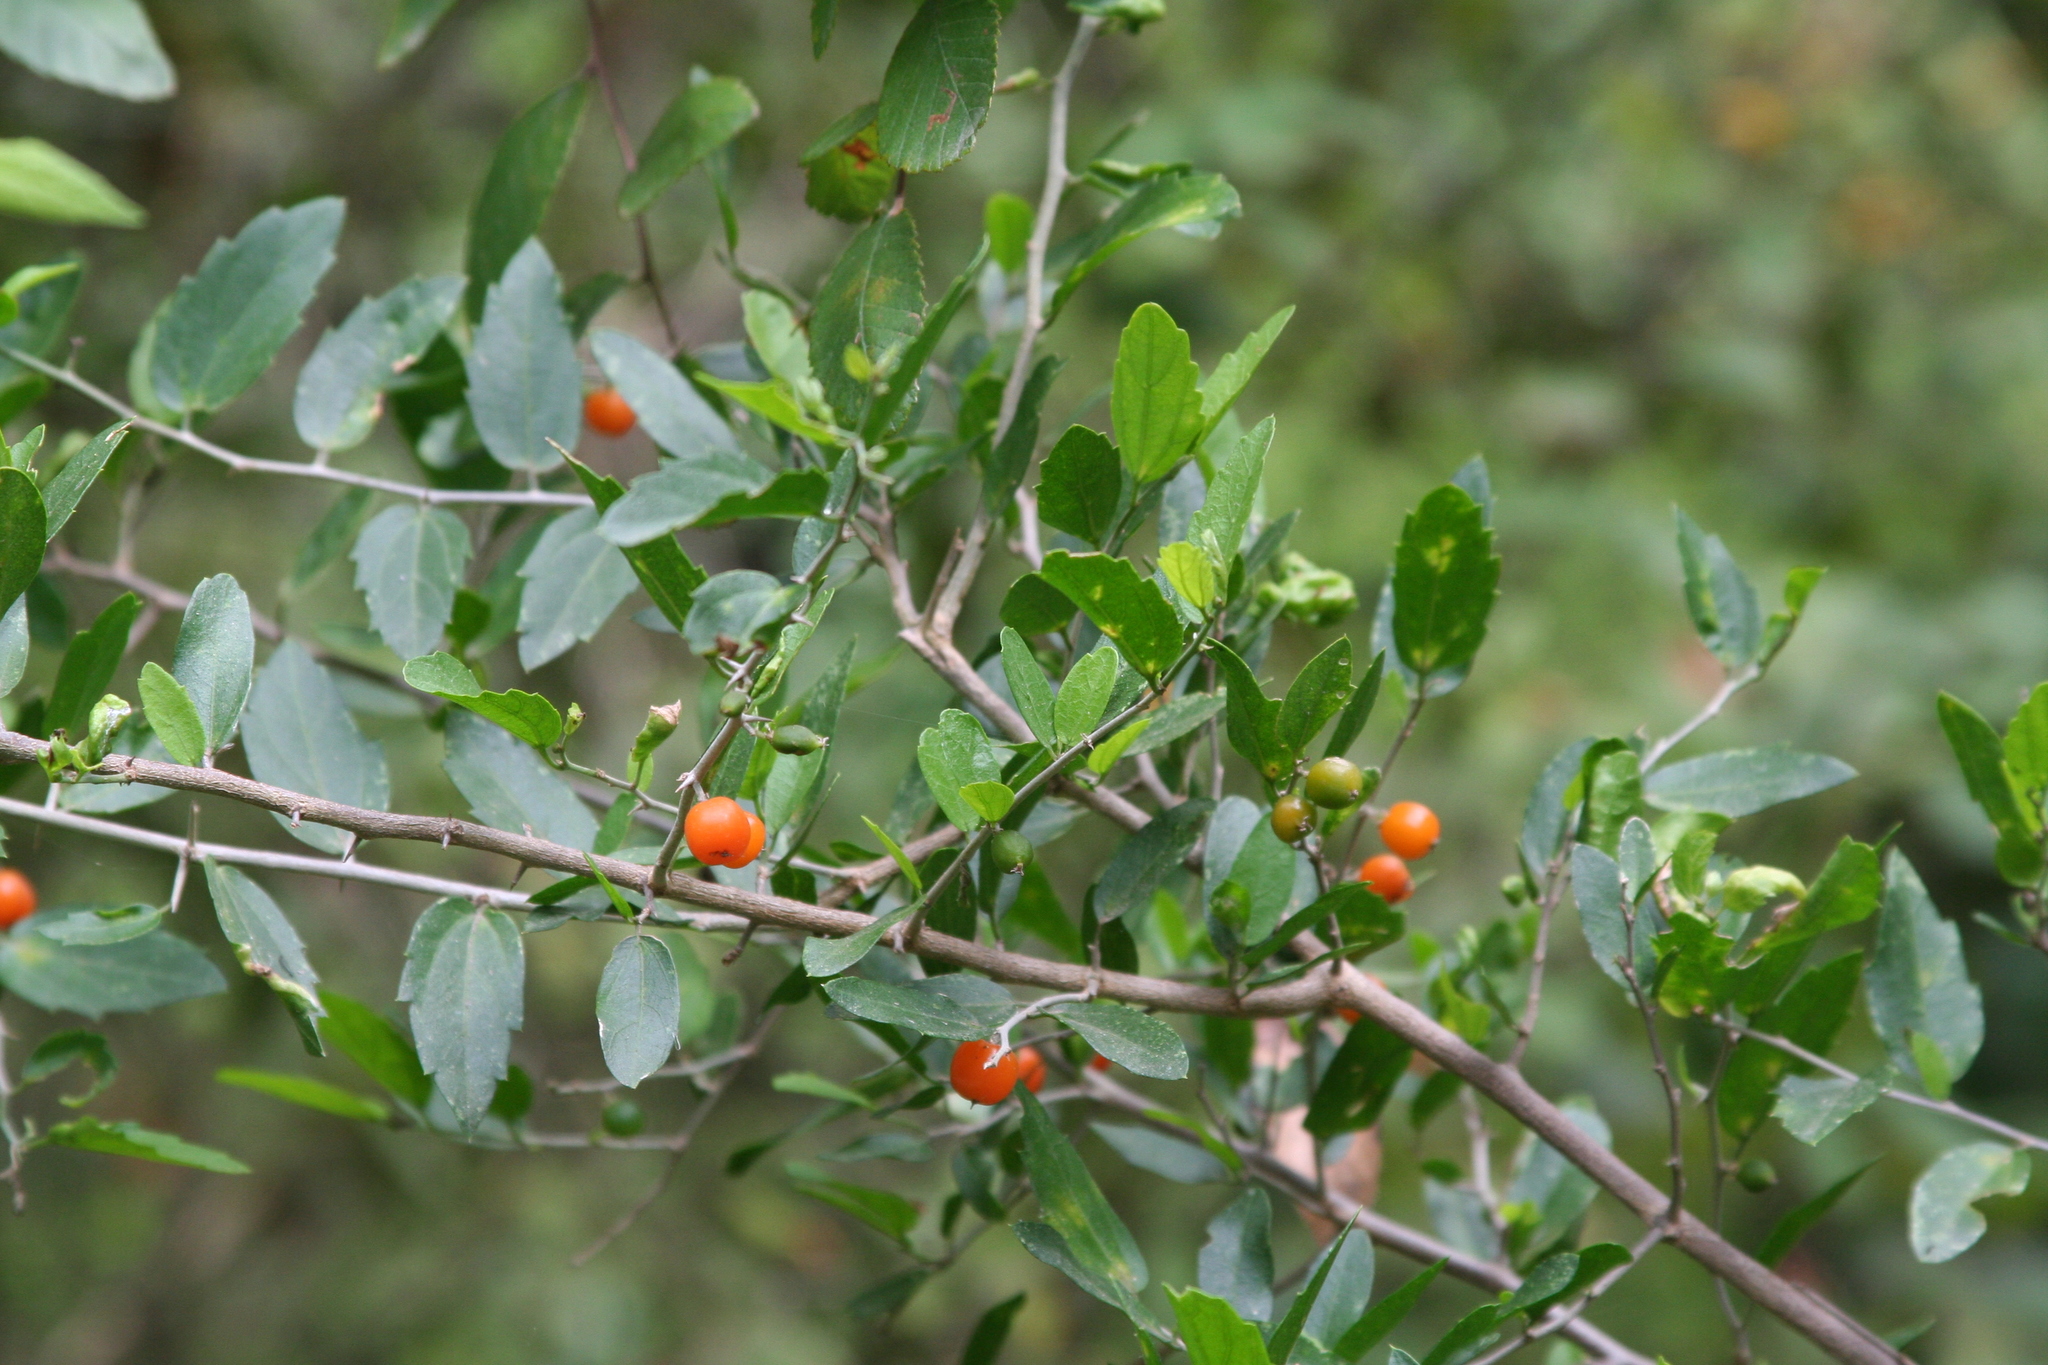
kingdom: Plantae
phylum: Tracheophyta
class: Magnoliopsida
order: Rosales
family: Cannabaceae
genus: Celtis
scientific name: Celtis pallida
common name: Desert hackberry
